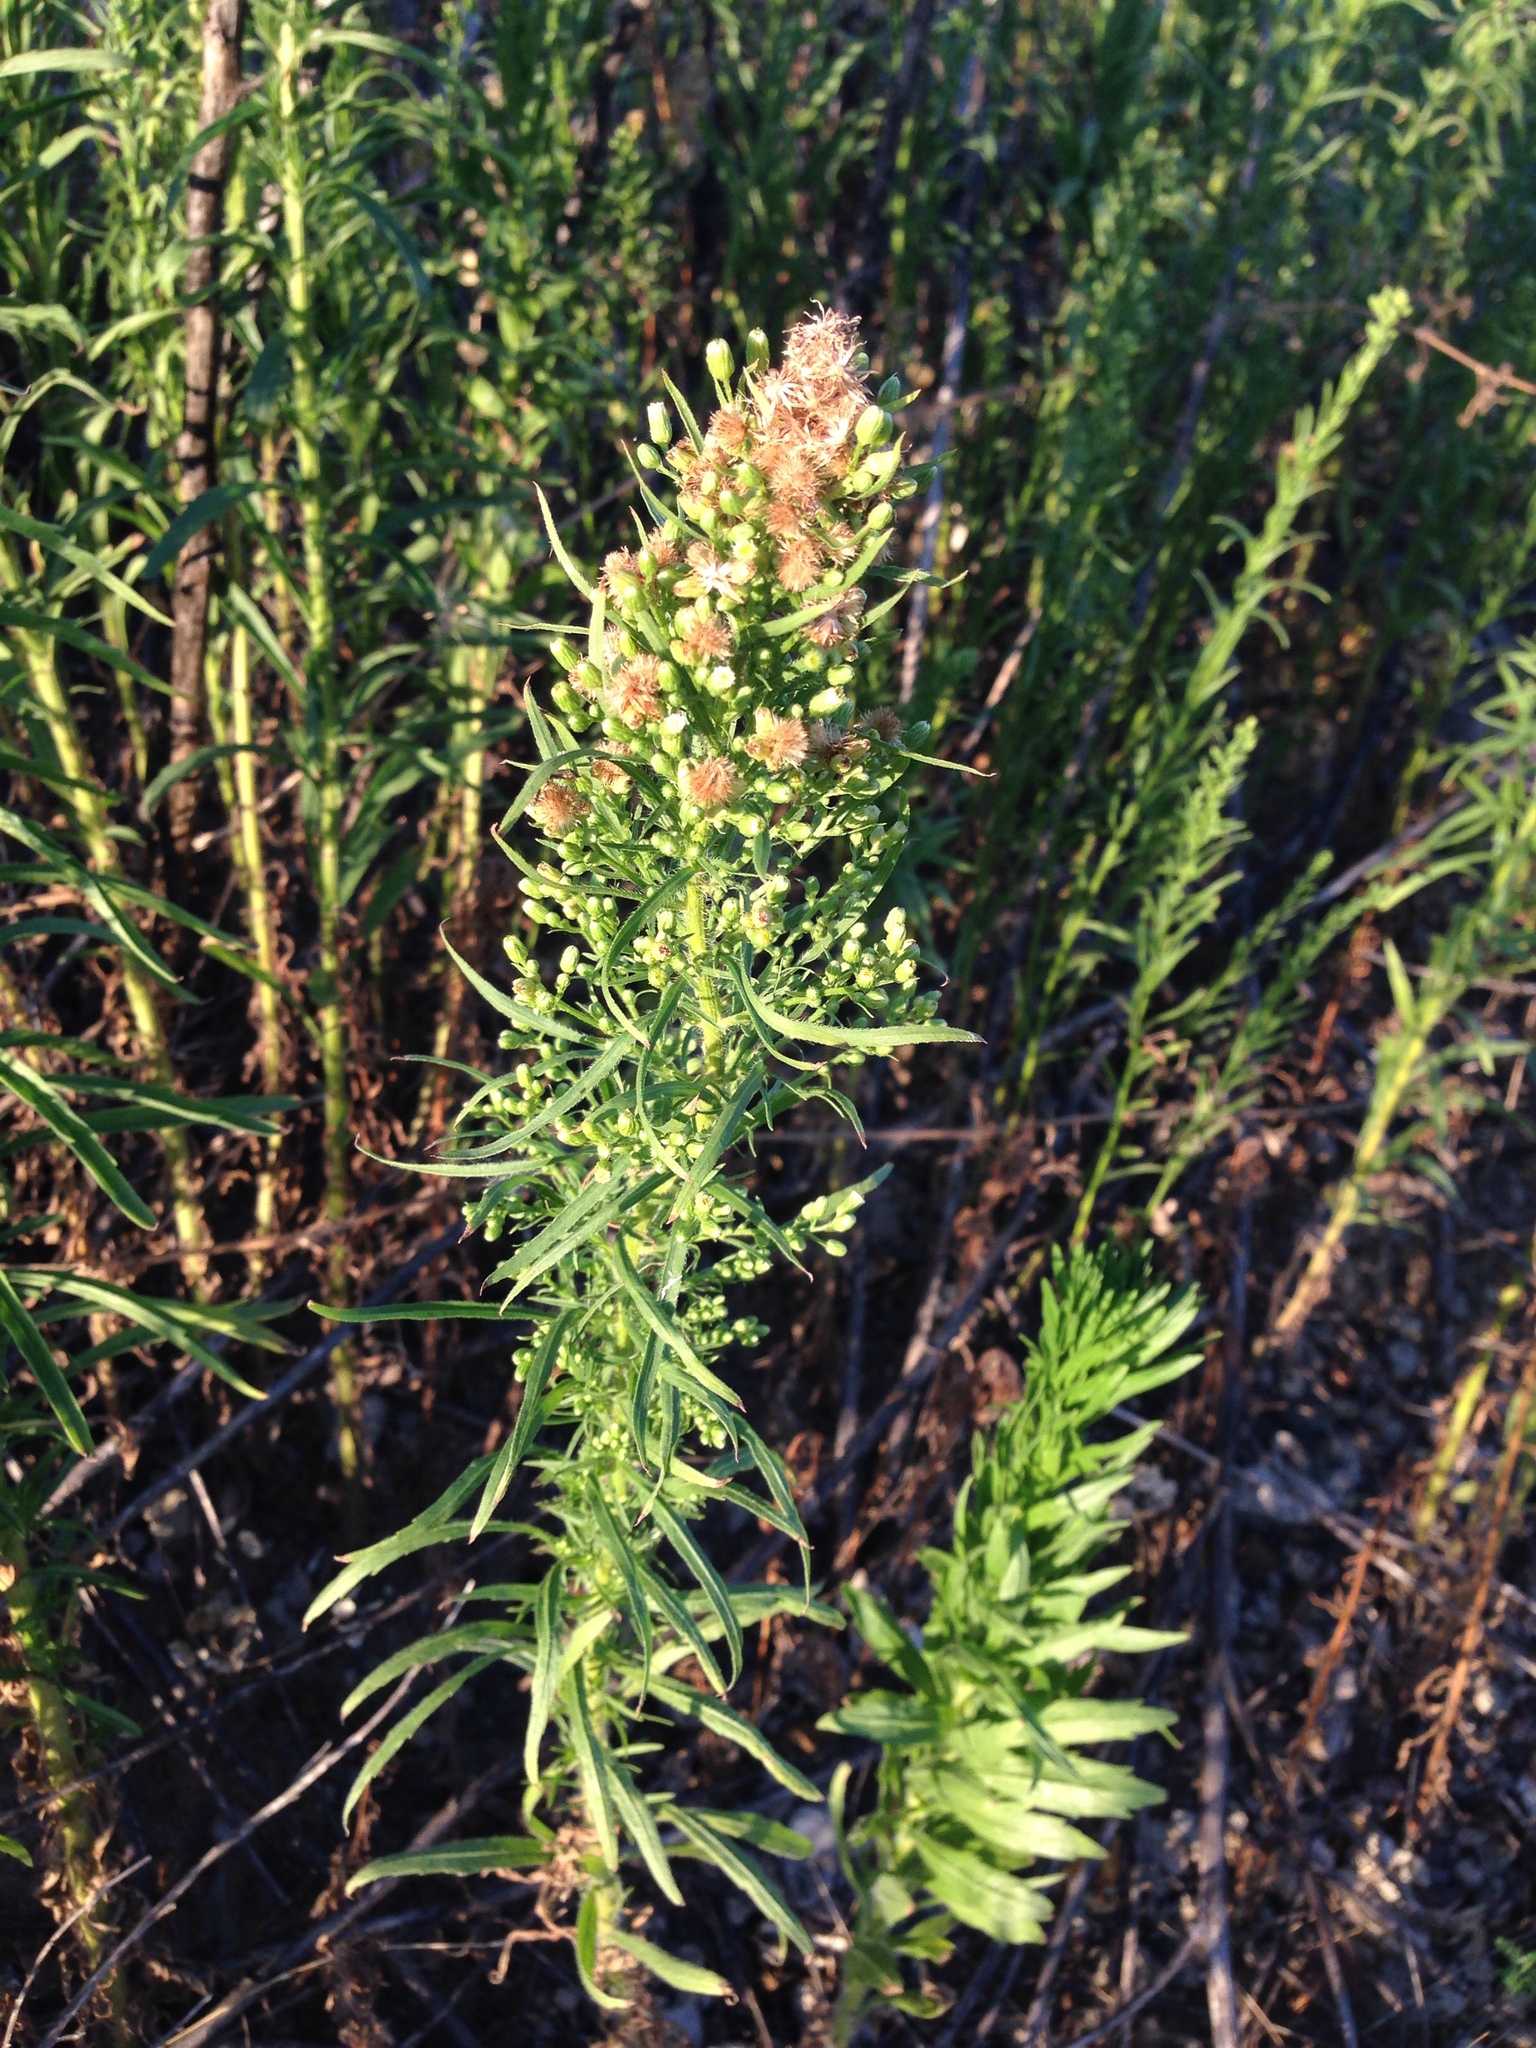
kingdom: Plantae
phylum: Tracheophyta
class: Magnoliopsida
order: Asterales
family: Asteraceae
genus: Erigeron
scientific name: Erigeron canadensis
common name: Canadian fleabane
